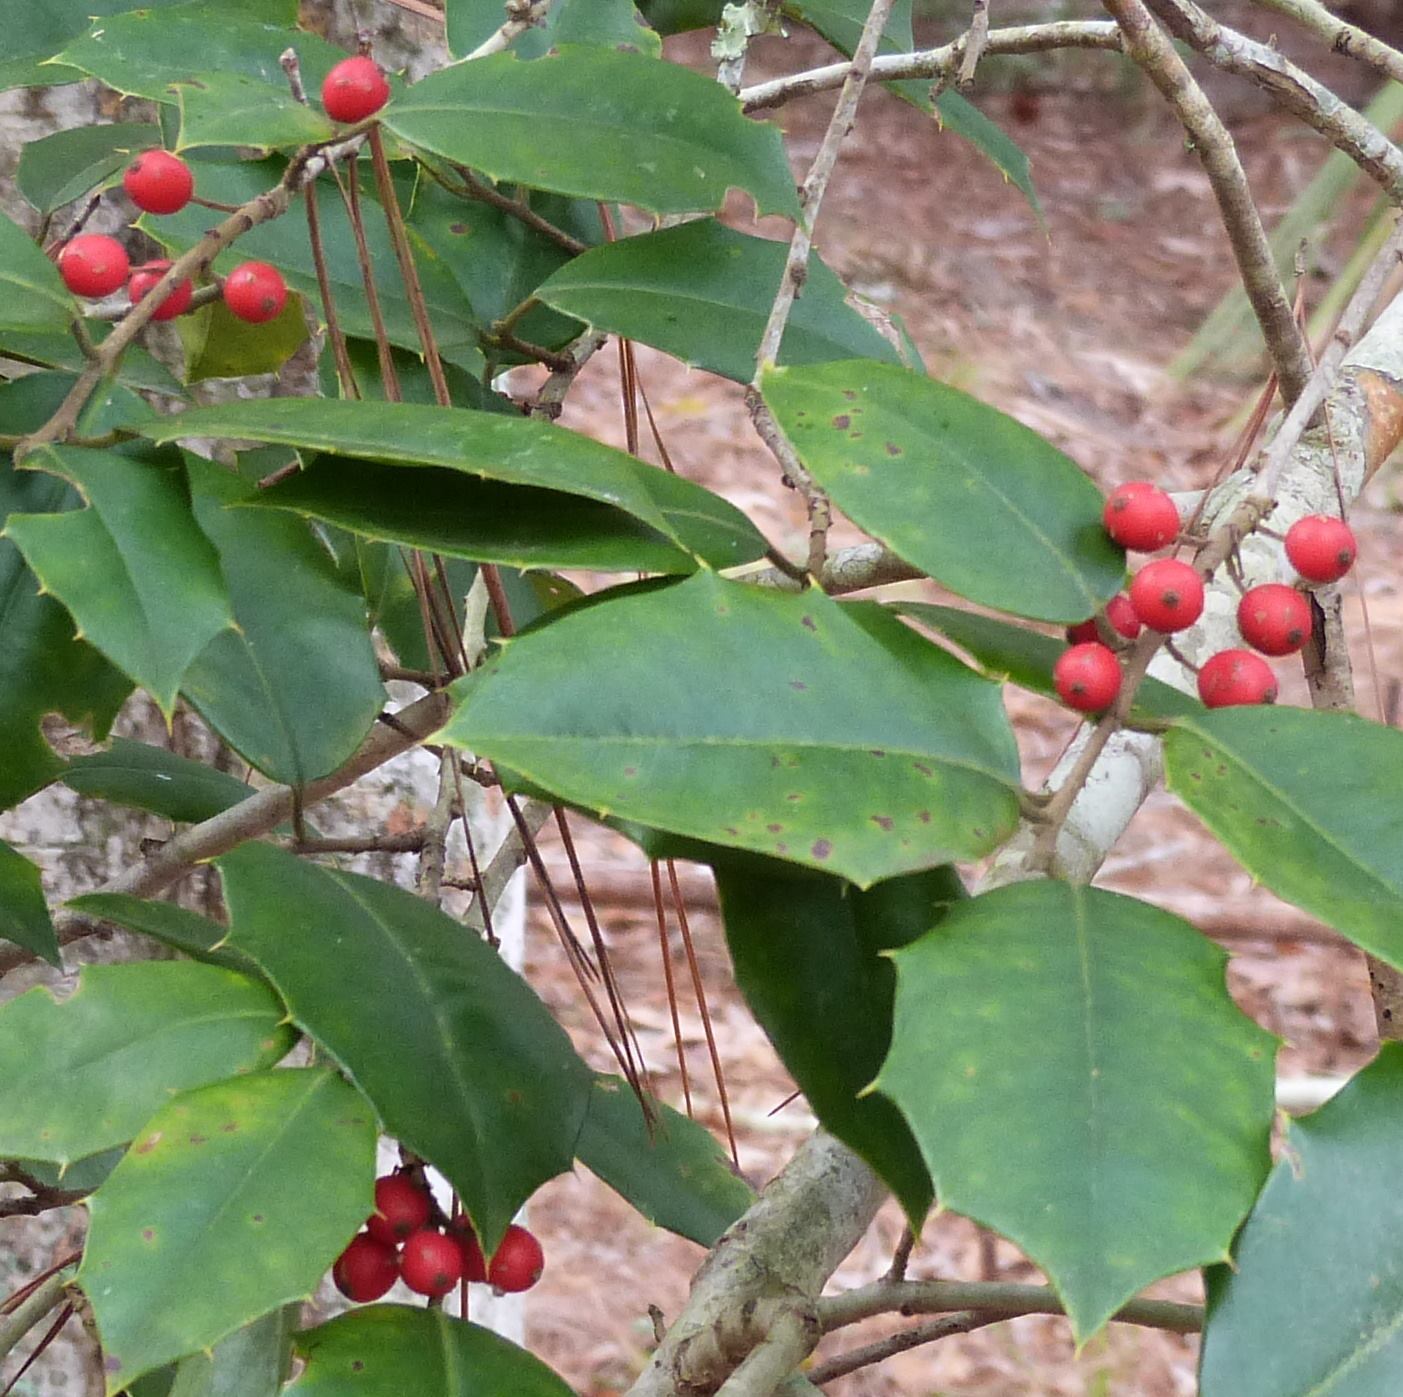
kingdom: Plantae
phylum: Tracheophyta
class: Magnoliopsida
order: Aquifoliales
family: Aquifoliaceae
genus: Ilex
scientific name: Ilex opaca
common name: American holly
